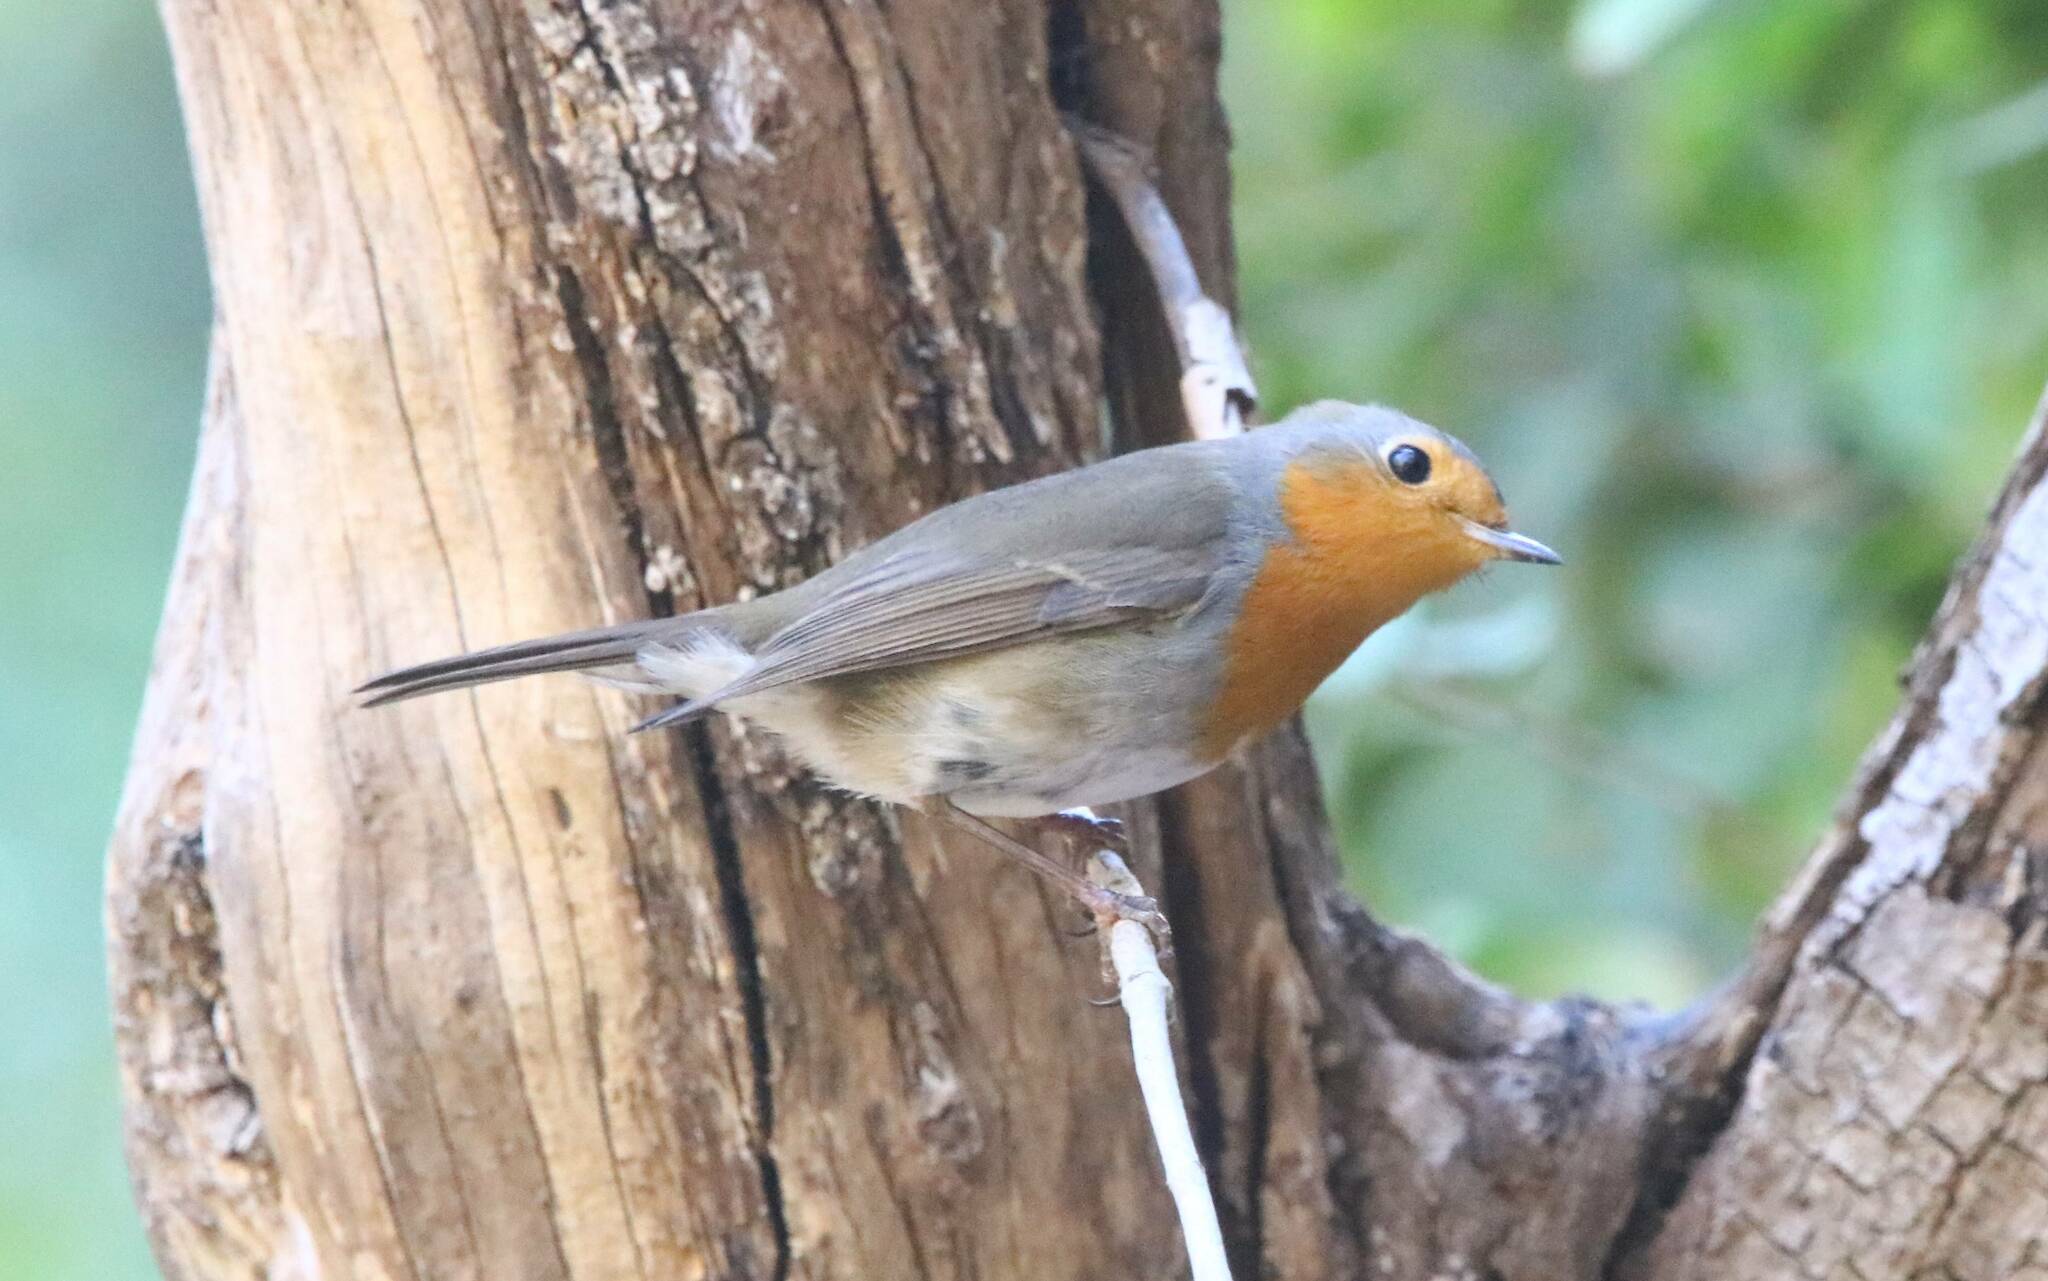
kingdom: Animalia
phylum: Chordata
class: Aves
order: Passeriformes
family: Muscicapidae
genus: Erithacus
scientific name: Erithacus rubecula
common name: European robin
